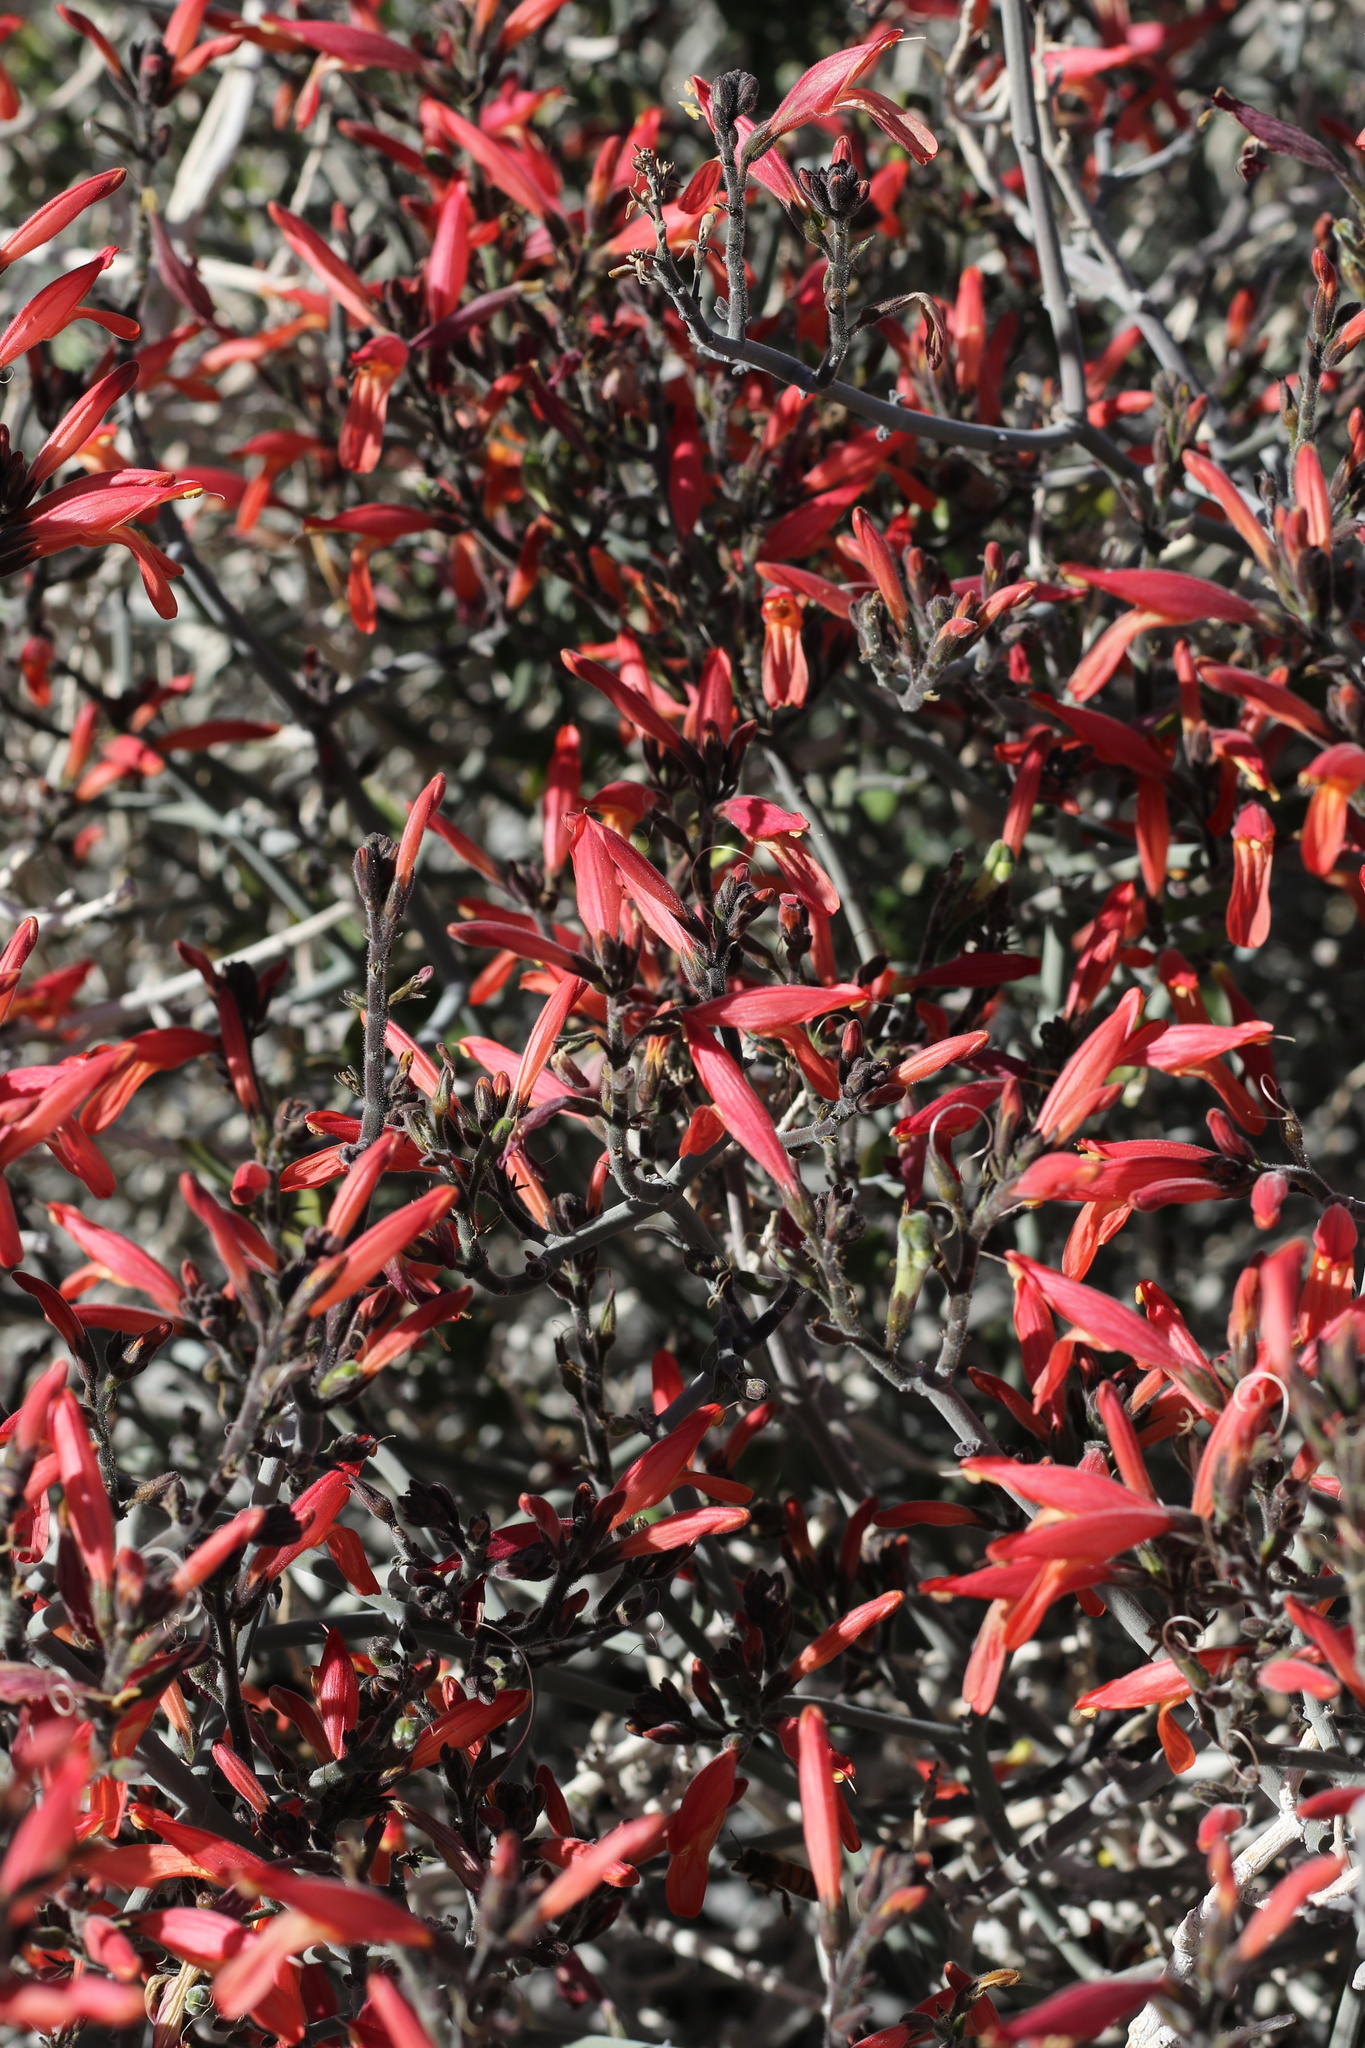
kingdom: Plantae
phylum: Tracheophyta
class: Magnoliopsida
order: Lamiales
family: Acanthaceae
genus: Justicia
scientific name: Justicia californica
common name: Chuparosa-honeysuckle
